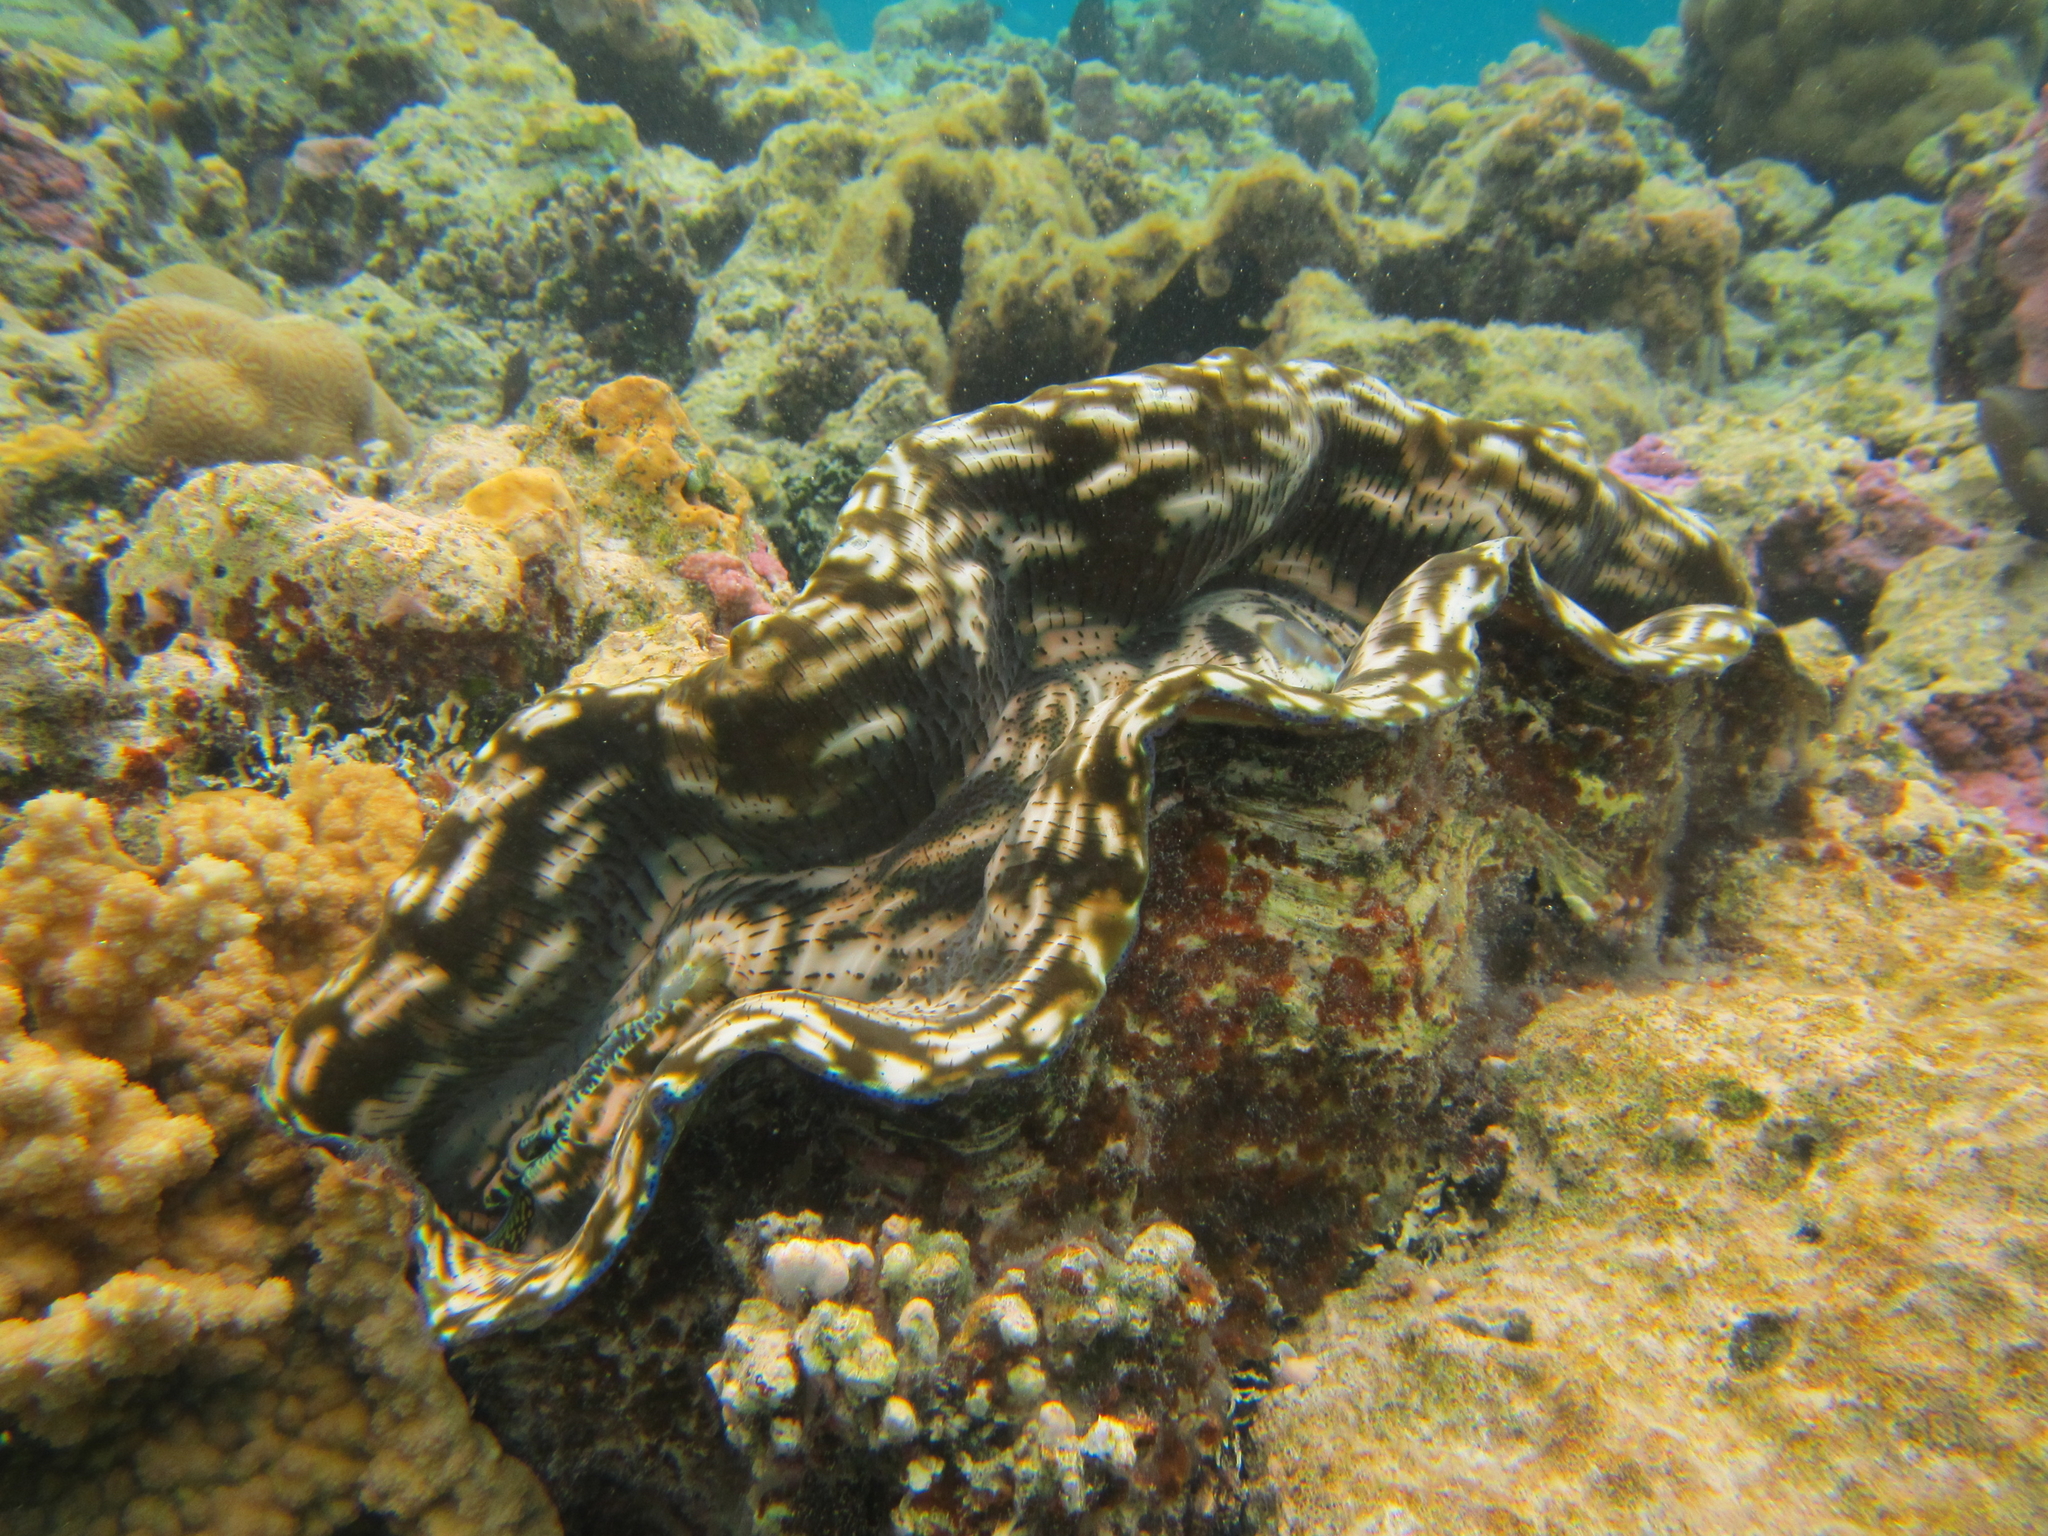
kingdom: Animalia
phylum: Mollusca
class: Bivalvia
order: Cardiida
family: Cardiidae
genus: Tridacna
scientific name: Tridacna derasa
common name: Southern giant clam
